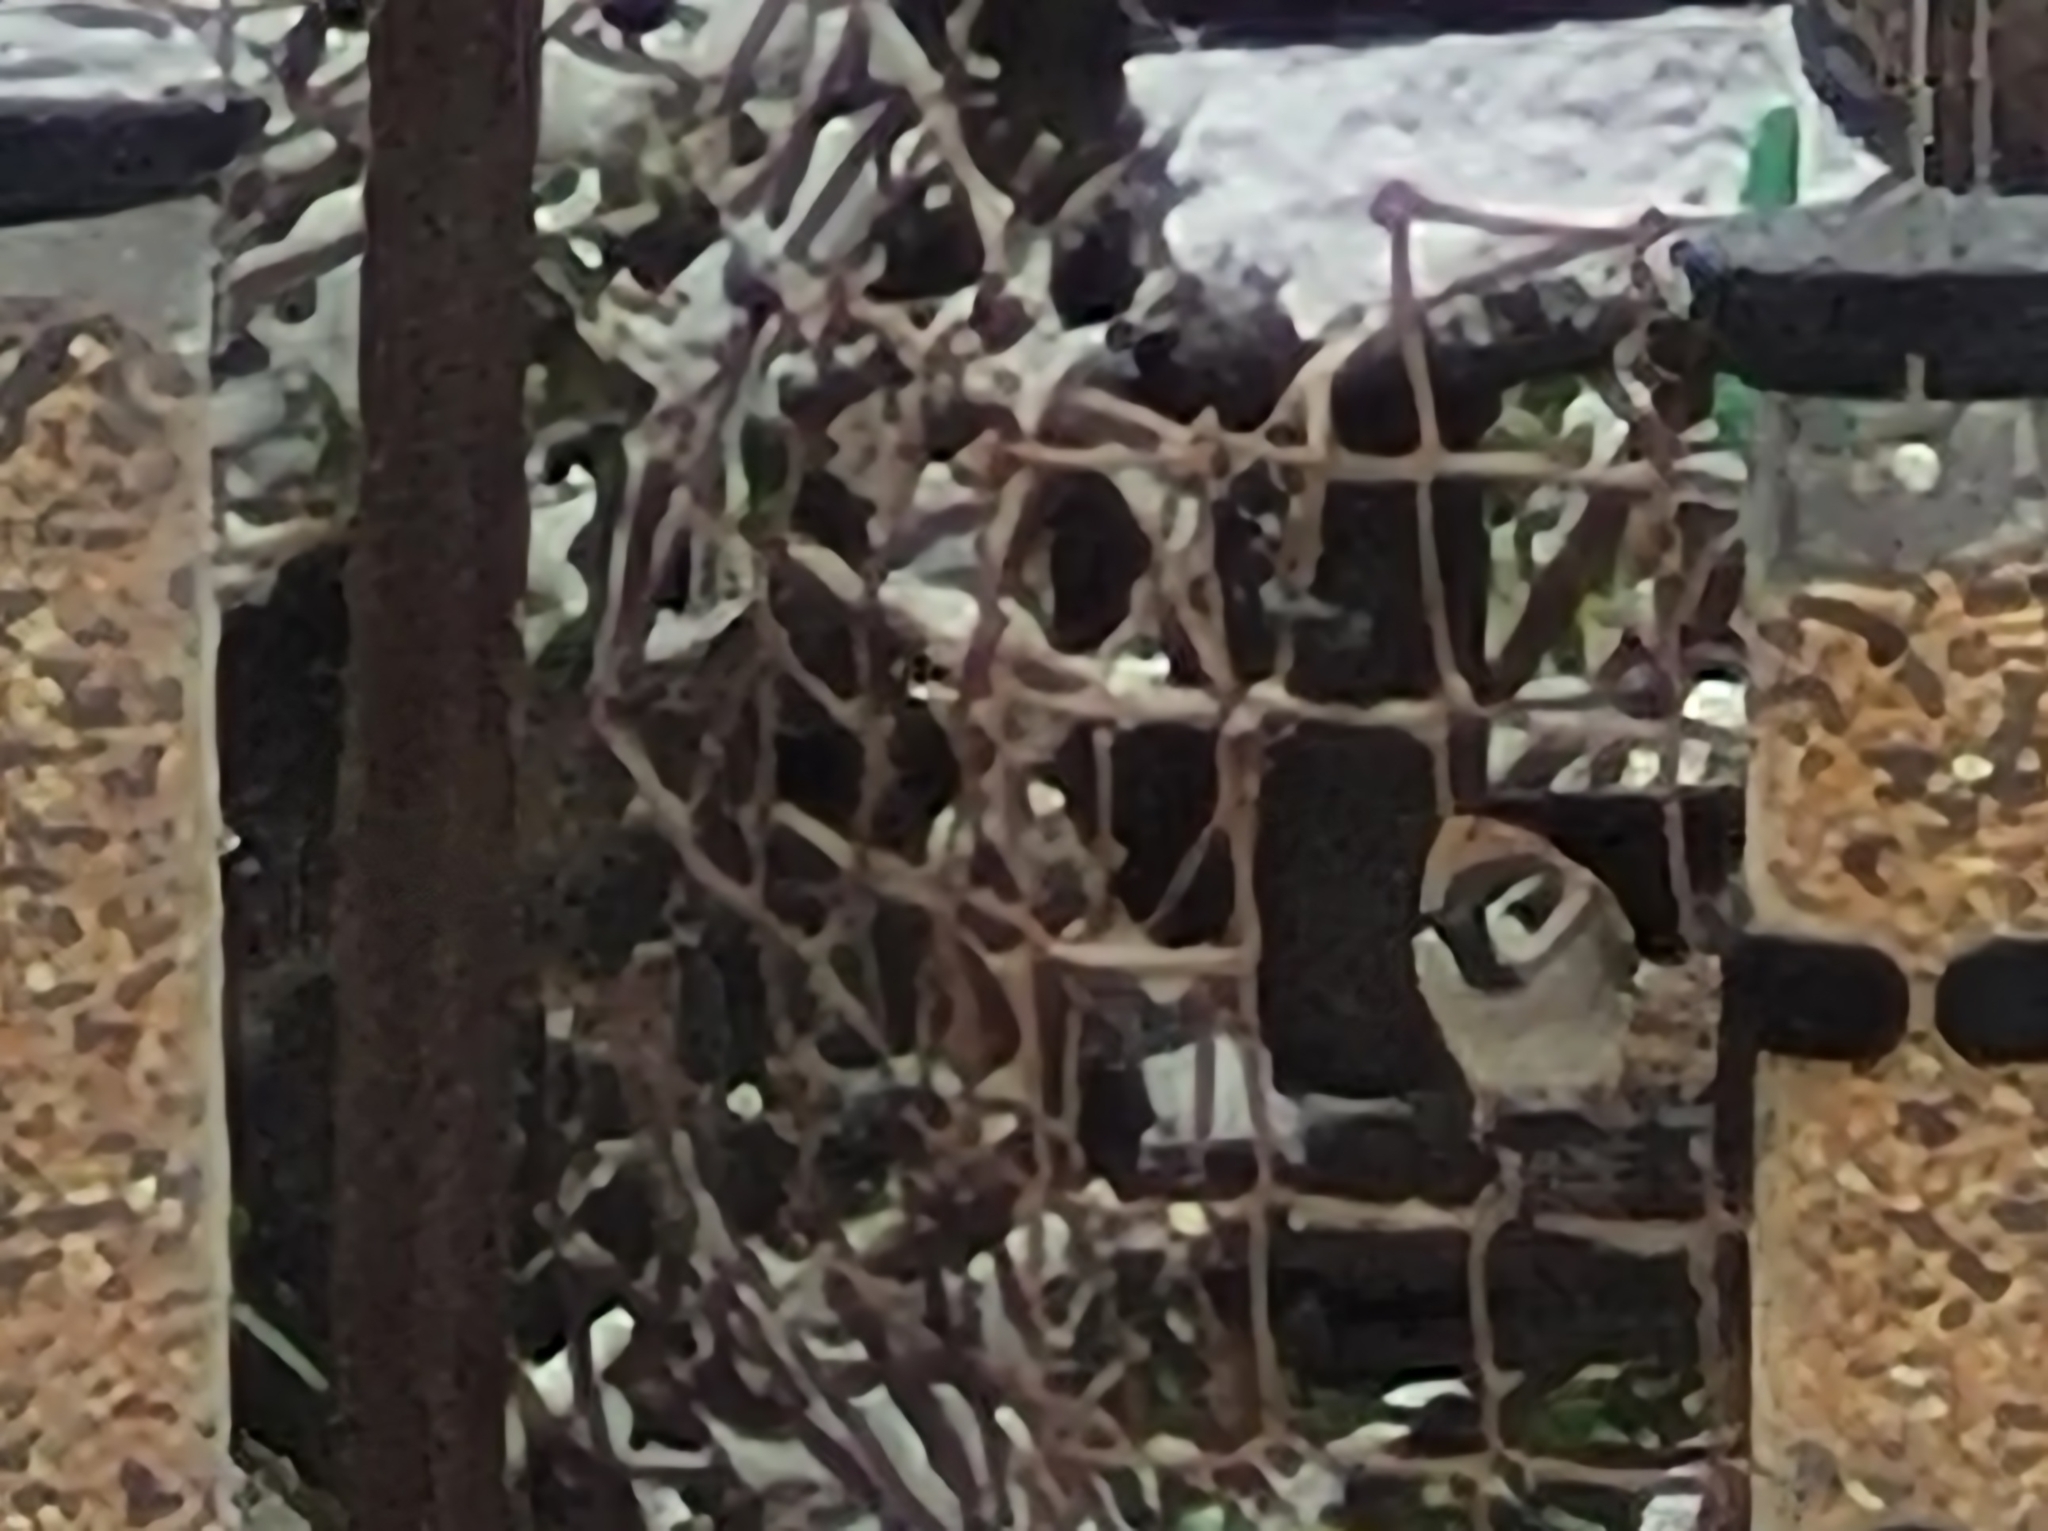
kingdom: Animalia
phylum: Chordata
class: Aves
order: Passeriformes
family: Passeridae
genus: Passer
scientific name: Passer montanus
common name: Eurasian tree sparrow
